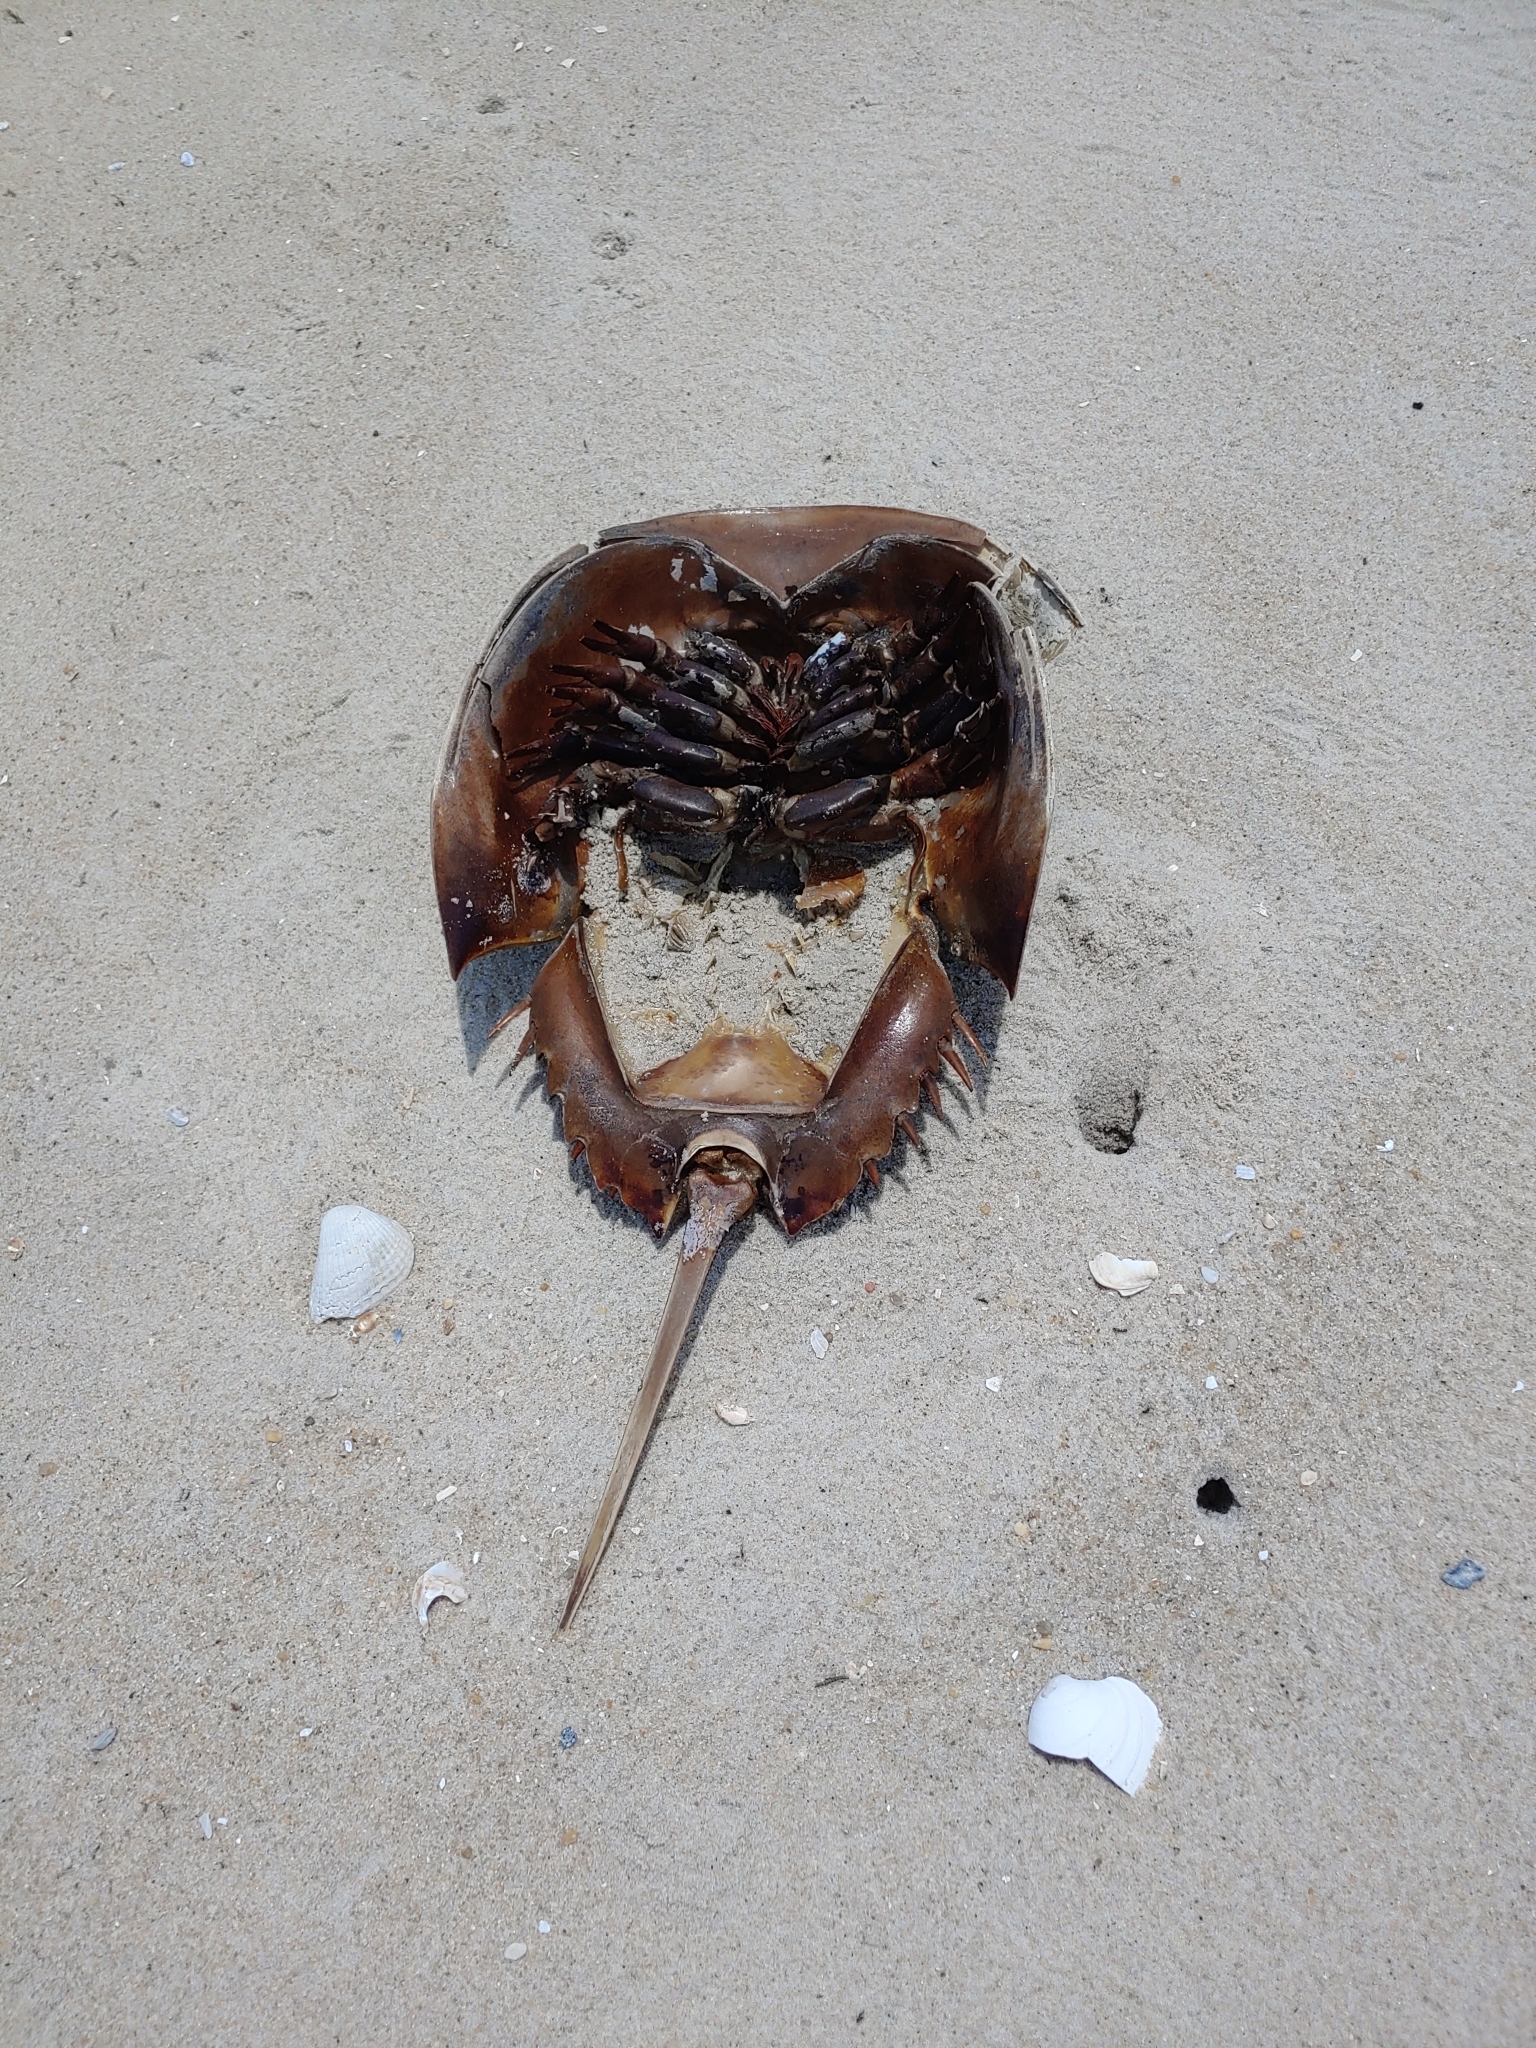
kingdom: Animalia
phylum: Arthropoda
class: Merostomata
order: Xiphosurida
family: Limulidae
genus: Limulus
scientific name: Limulus polyphemus
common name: Horseshoe crab
